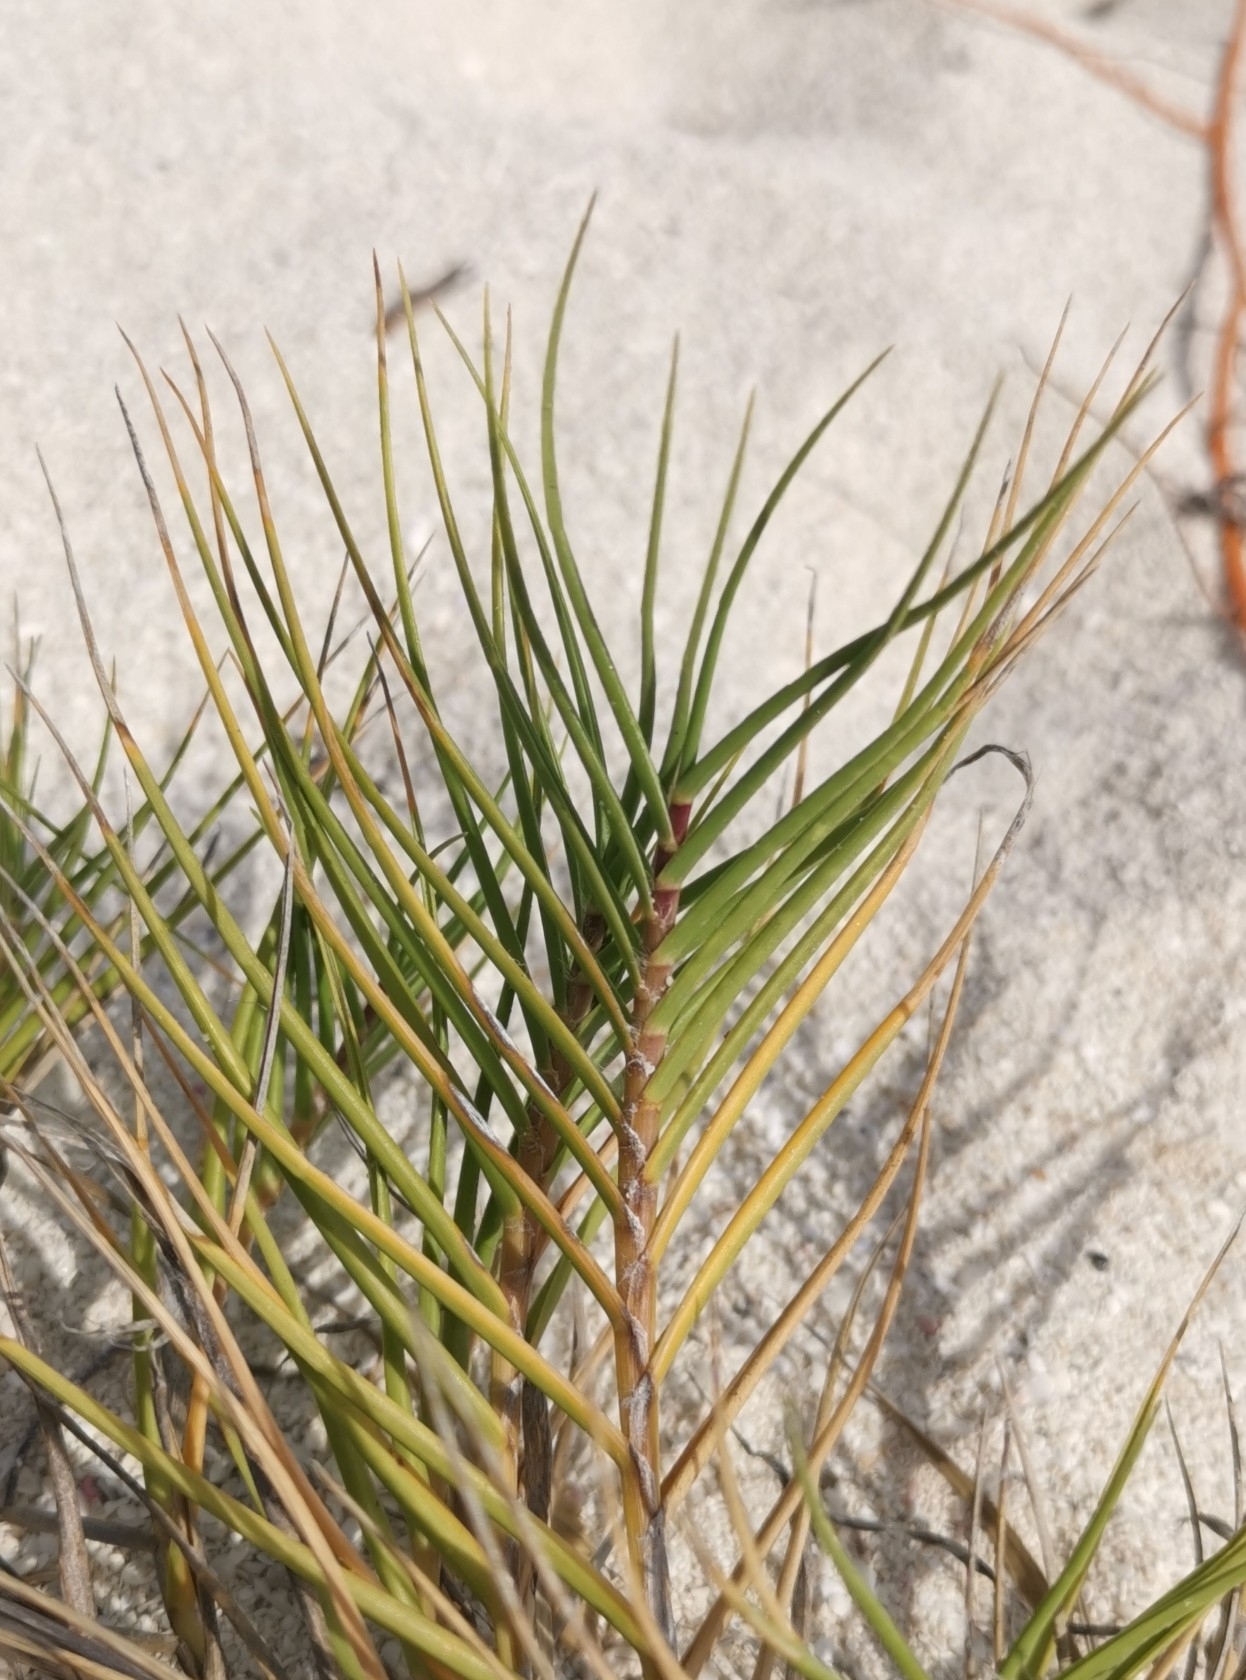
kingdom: Plantae
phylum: Tracheophyta
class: Liliopsida
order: Poales
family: Poaceae
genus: Distichlis
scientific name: Distichlis spicata
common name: Saltgrass
